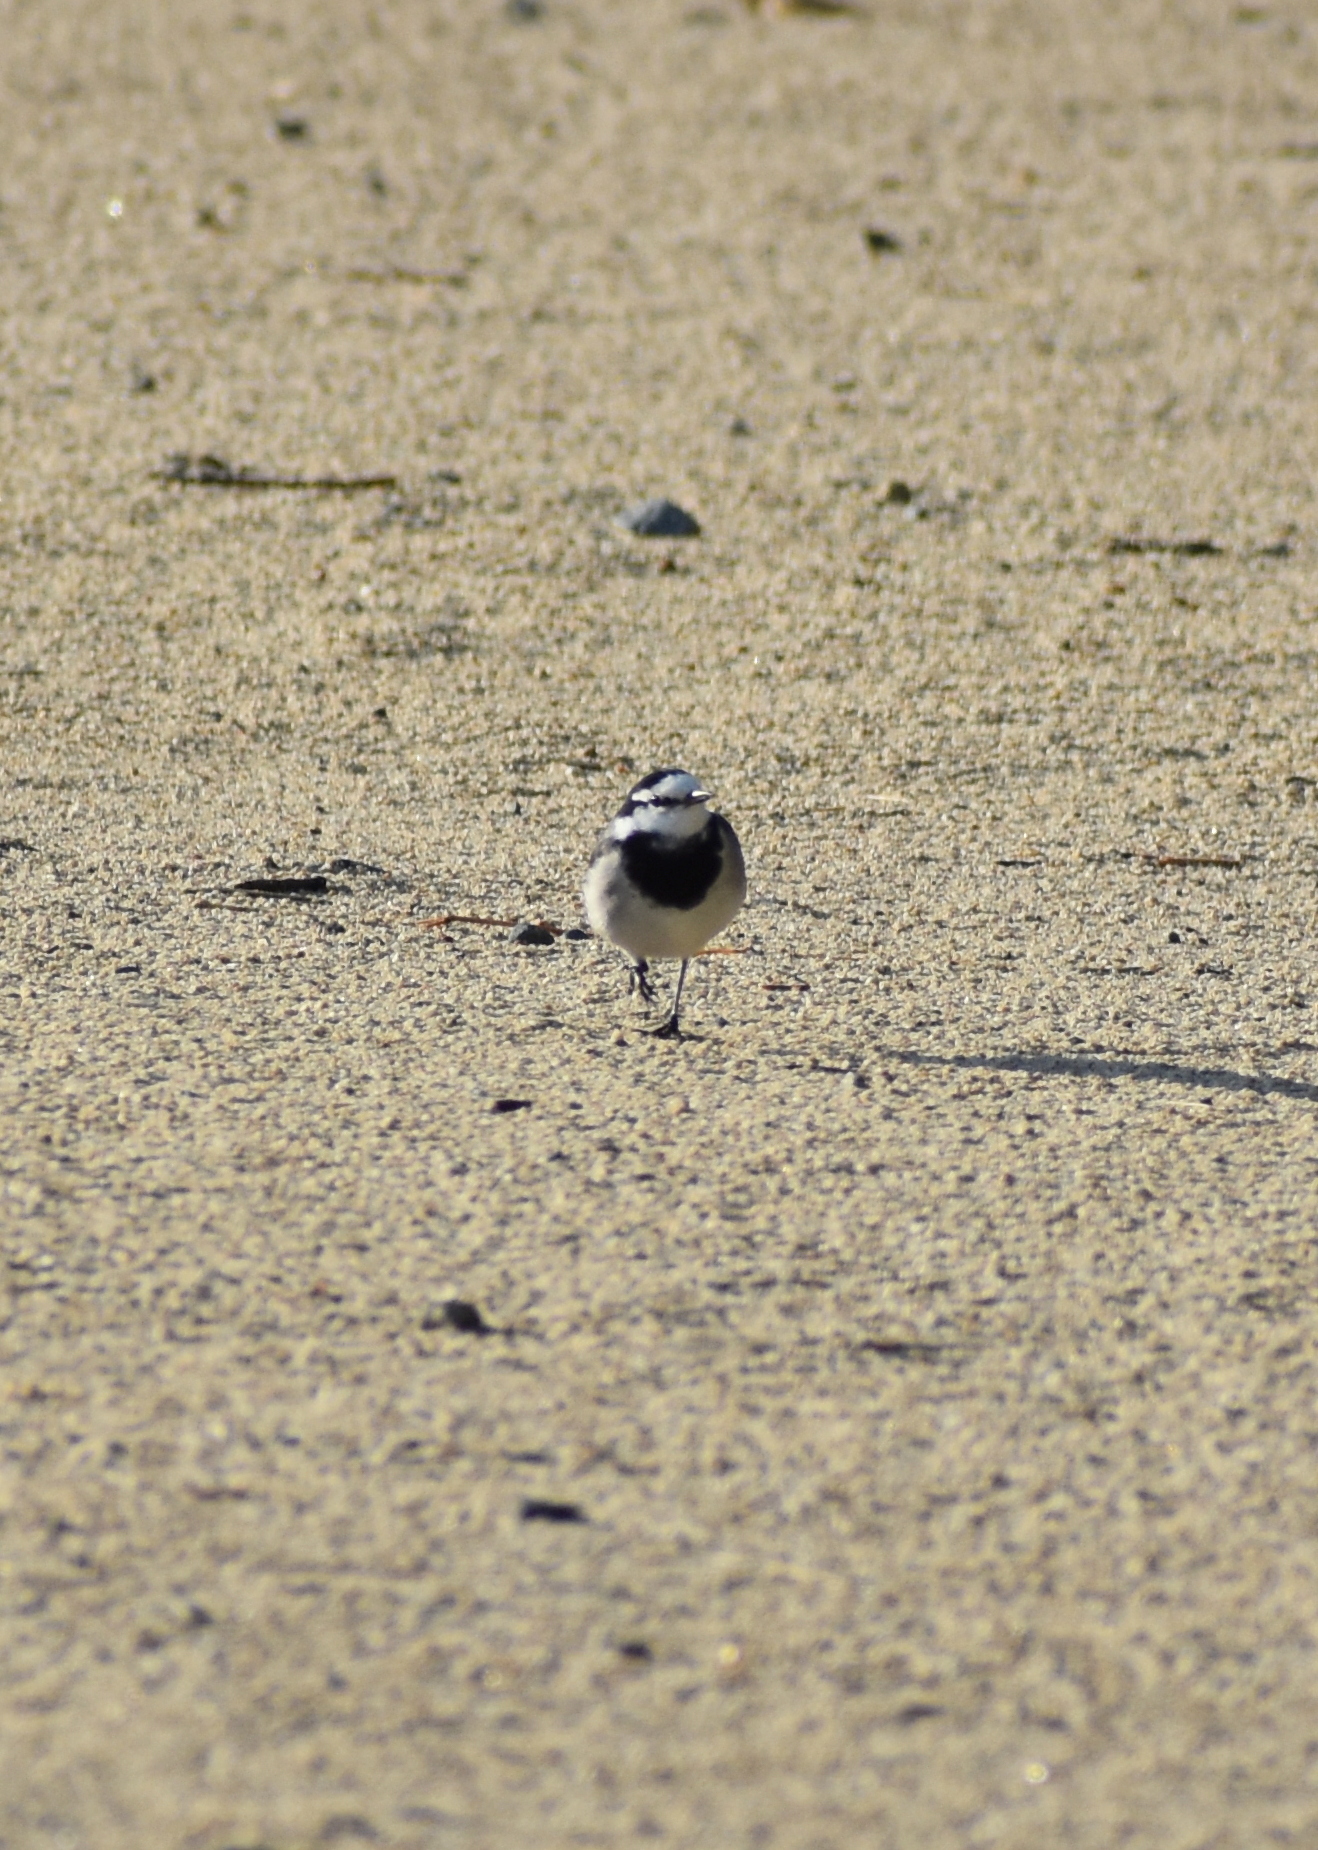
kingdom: Animalia
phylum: Chordata
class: Aves
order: Passeriformes
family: Motacillidae
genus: Motacilla
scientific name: Motacilla alba
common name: White wagtail
